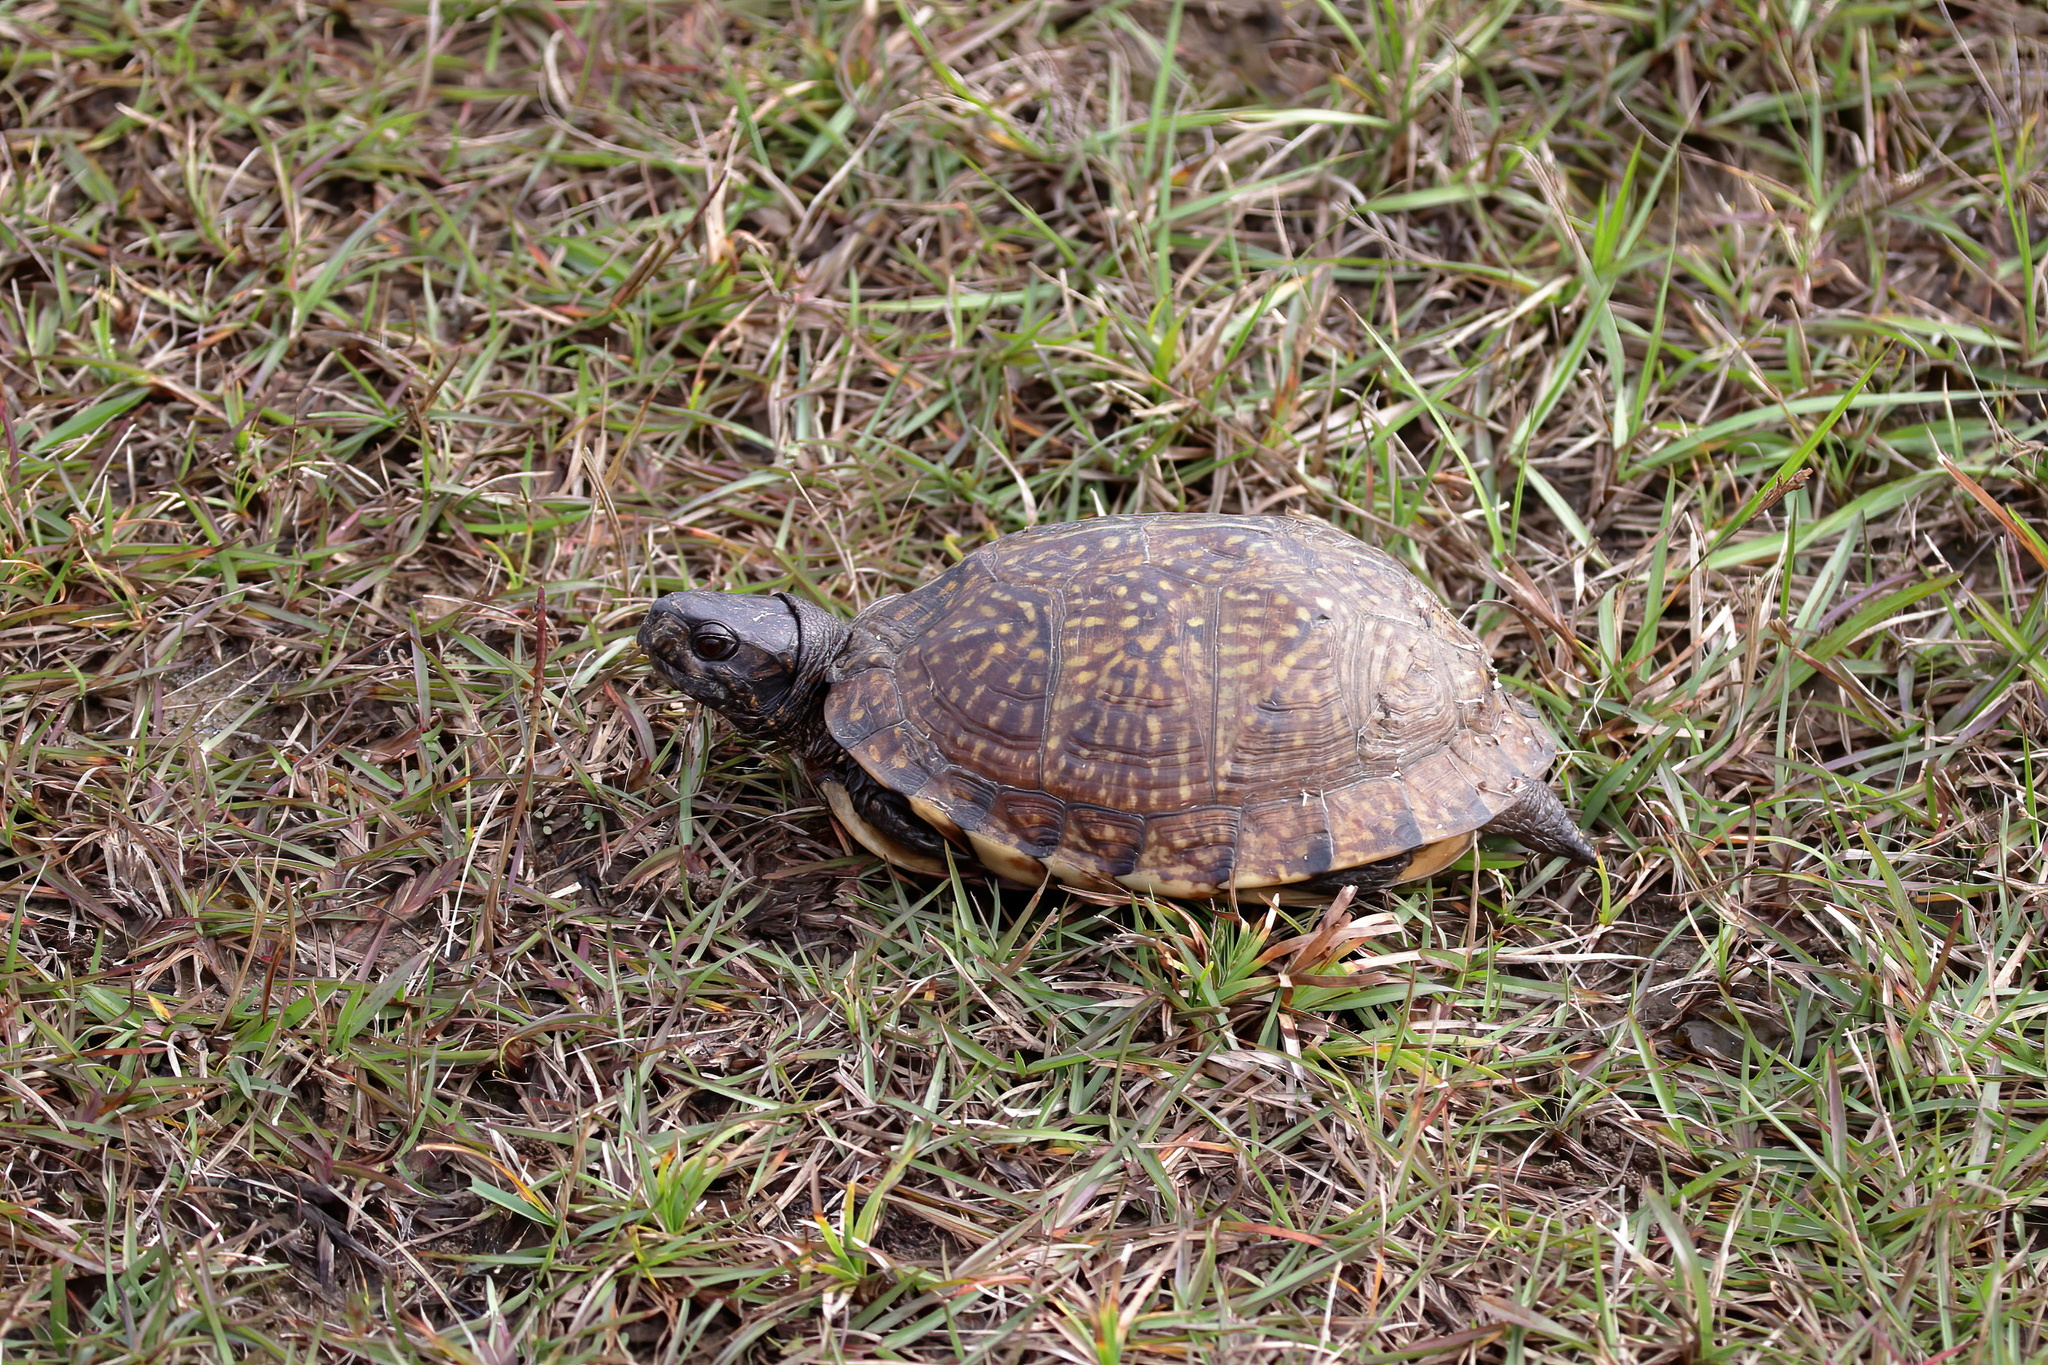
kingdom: Animalia
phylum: Chordata
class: Testudines
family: Emydidae
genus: Terrapene
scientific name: Terrapene carolina
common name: Common box turtle
